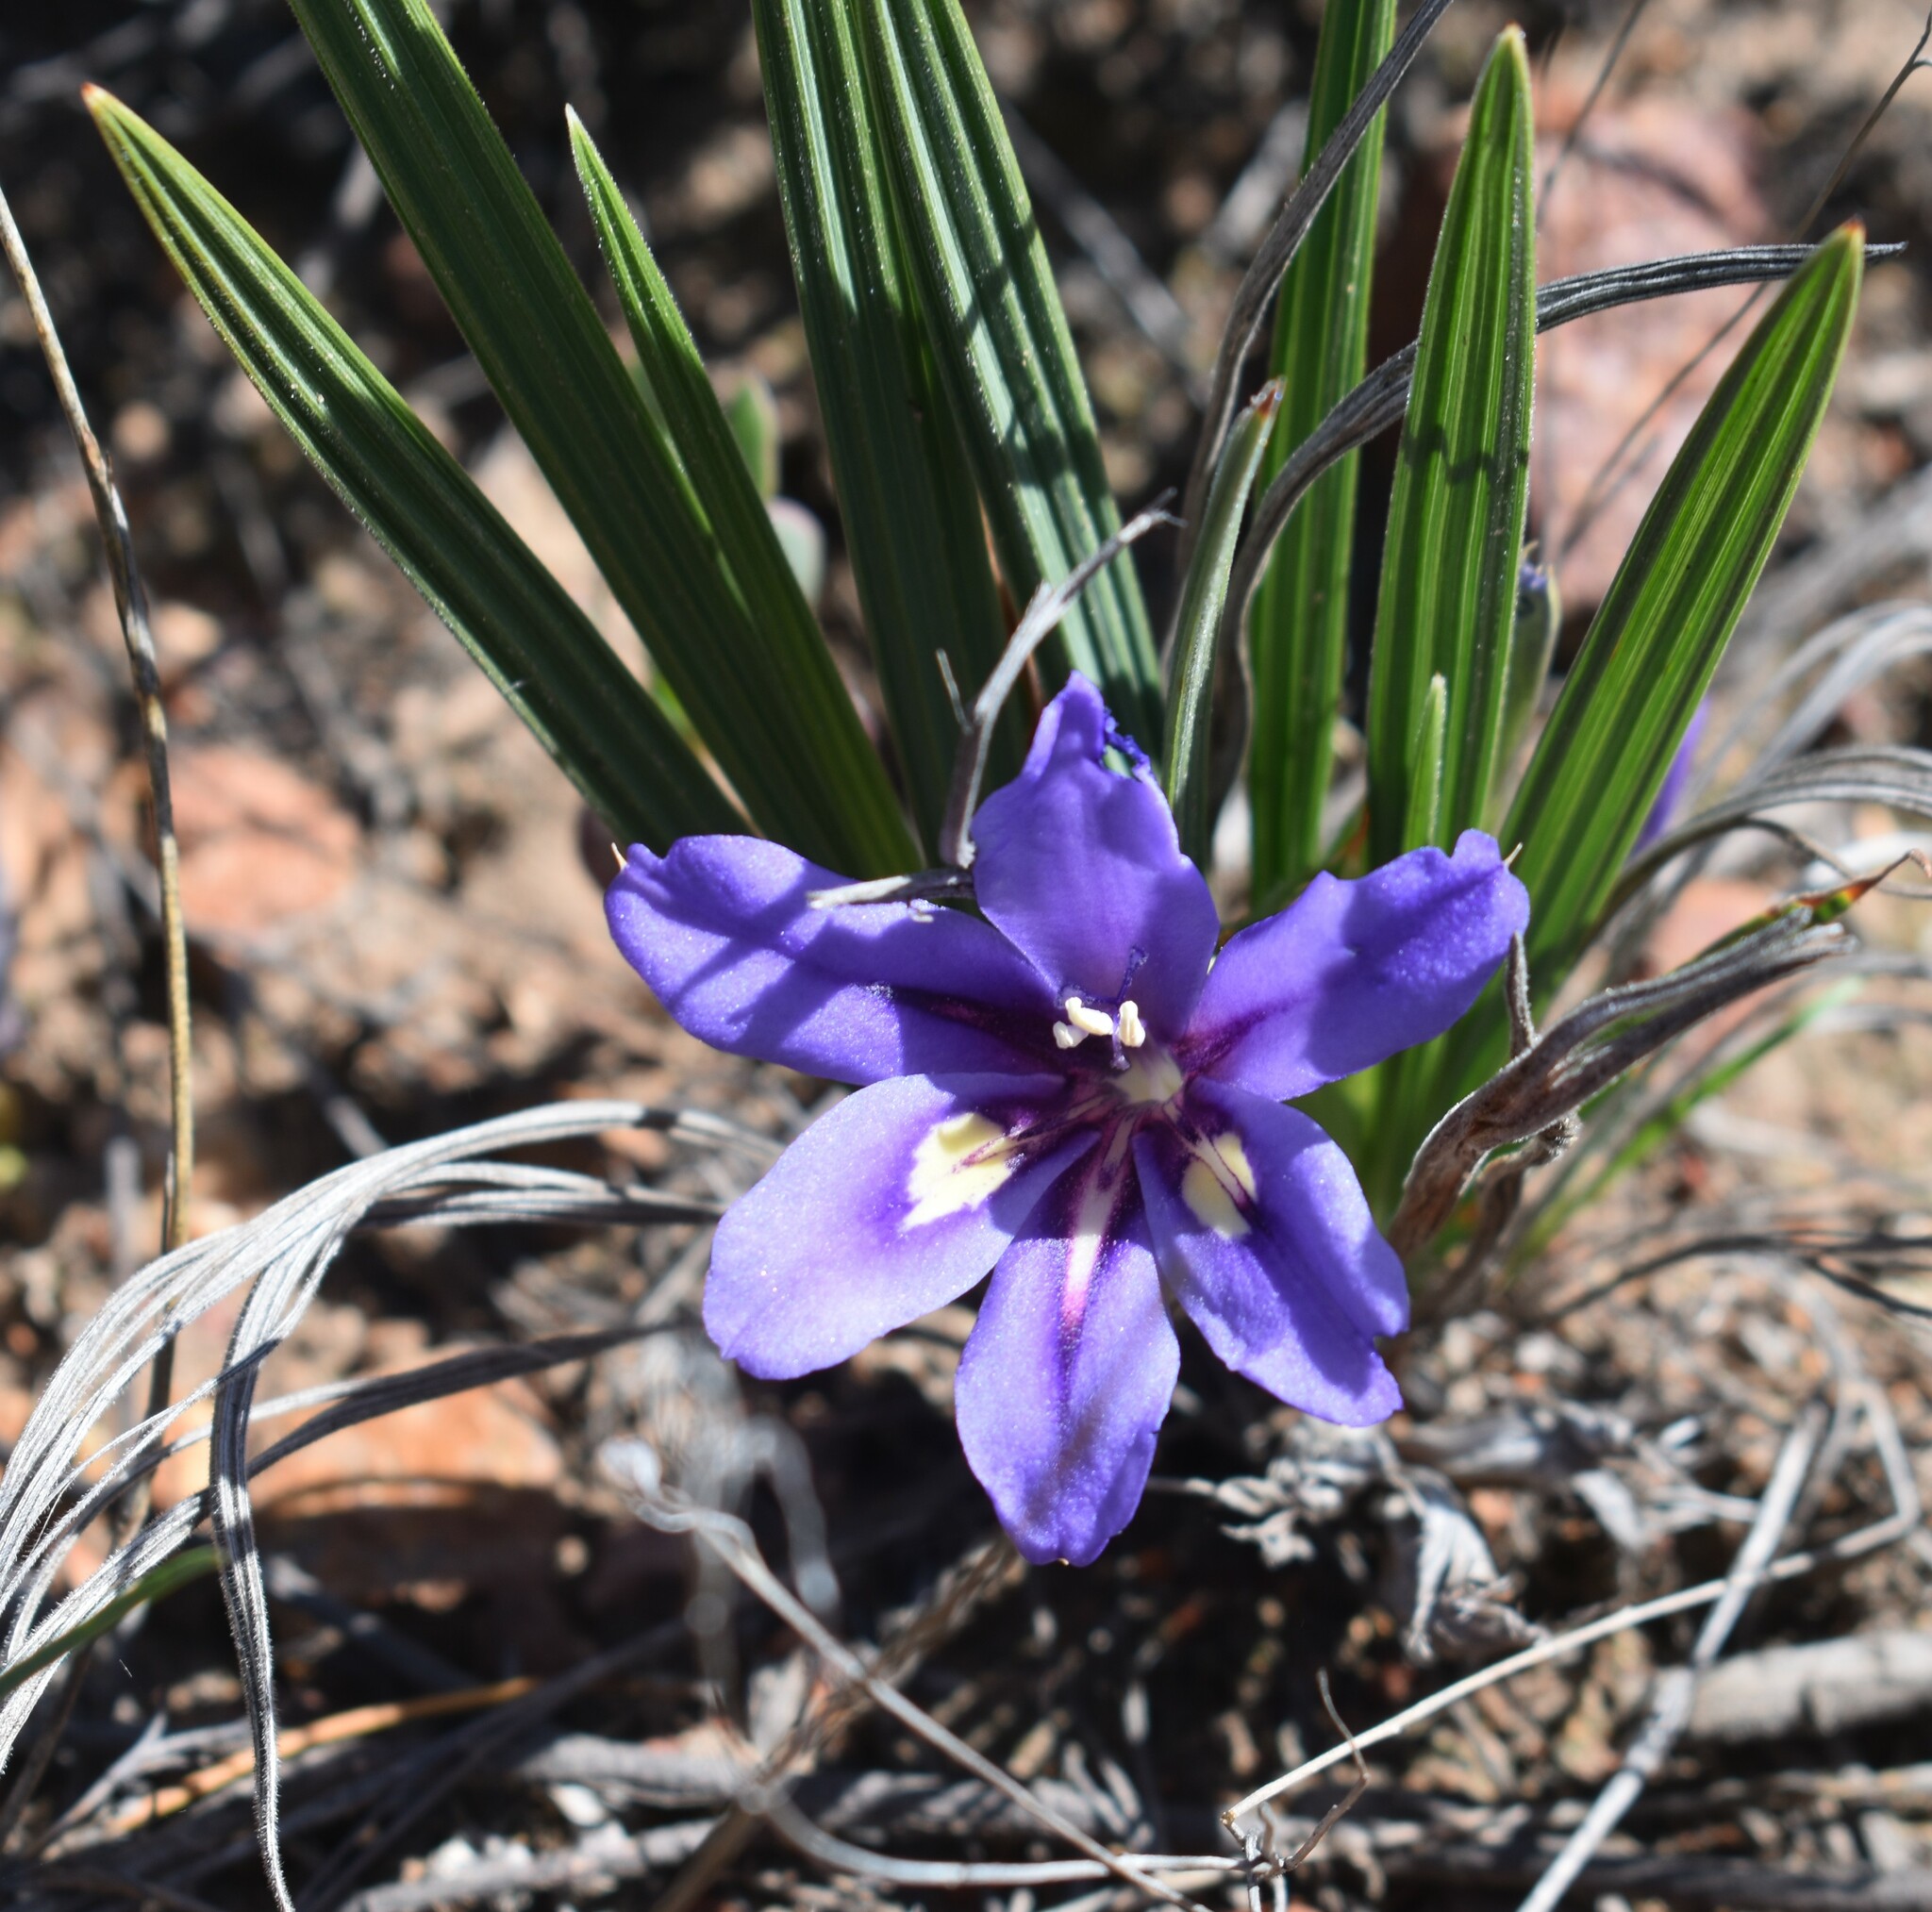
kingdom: Plantae
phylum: Tracheophyta
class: Liliopsida
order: Asparagales
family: Iridaceae
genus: Babiana
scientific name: Babiana sambucina
